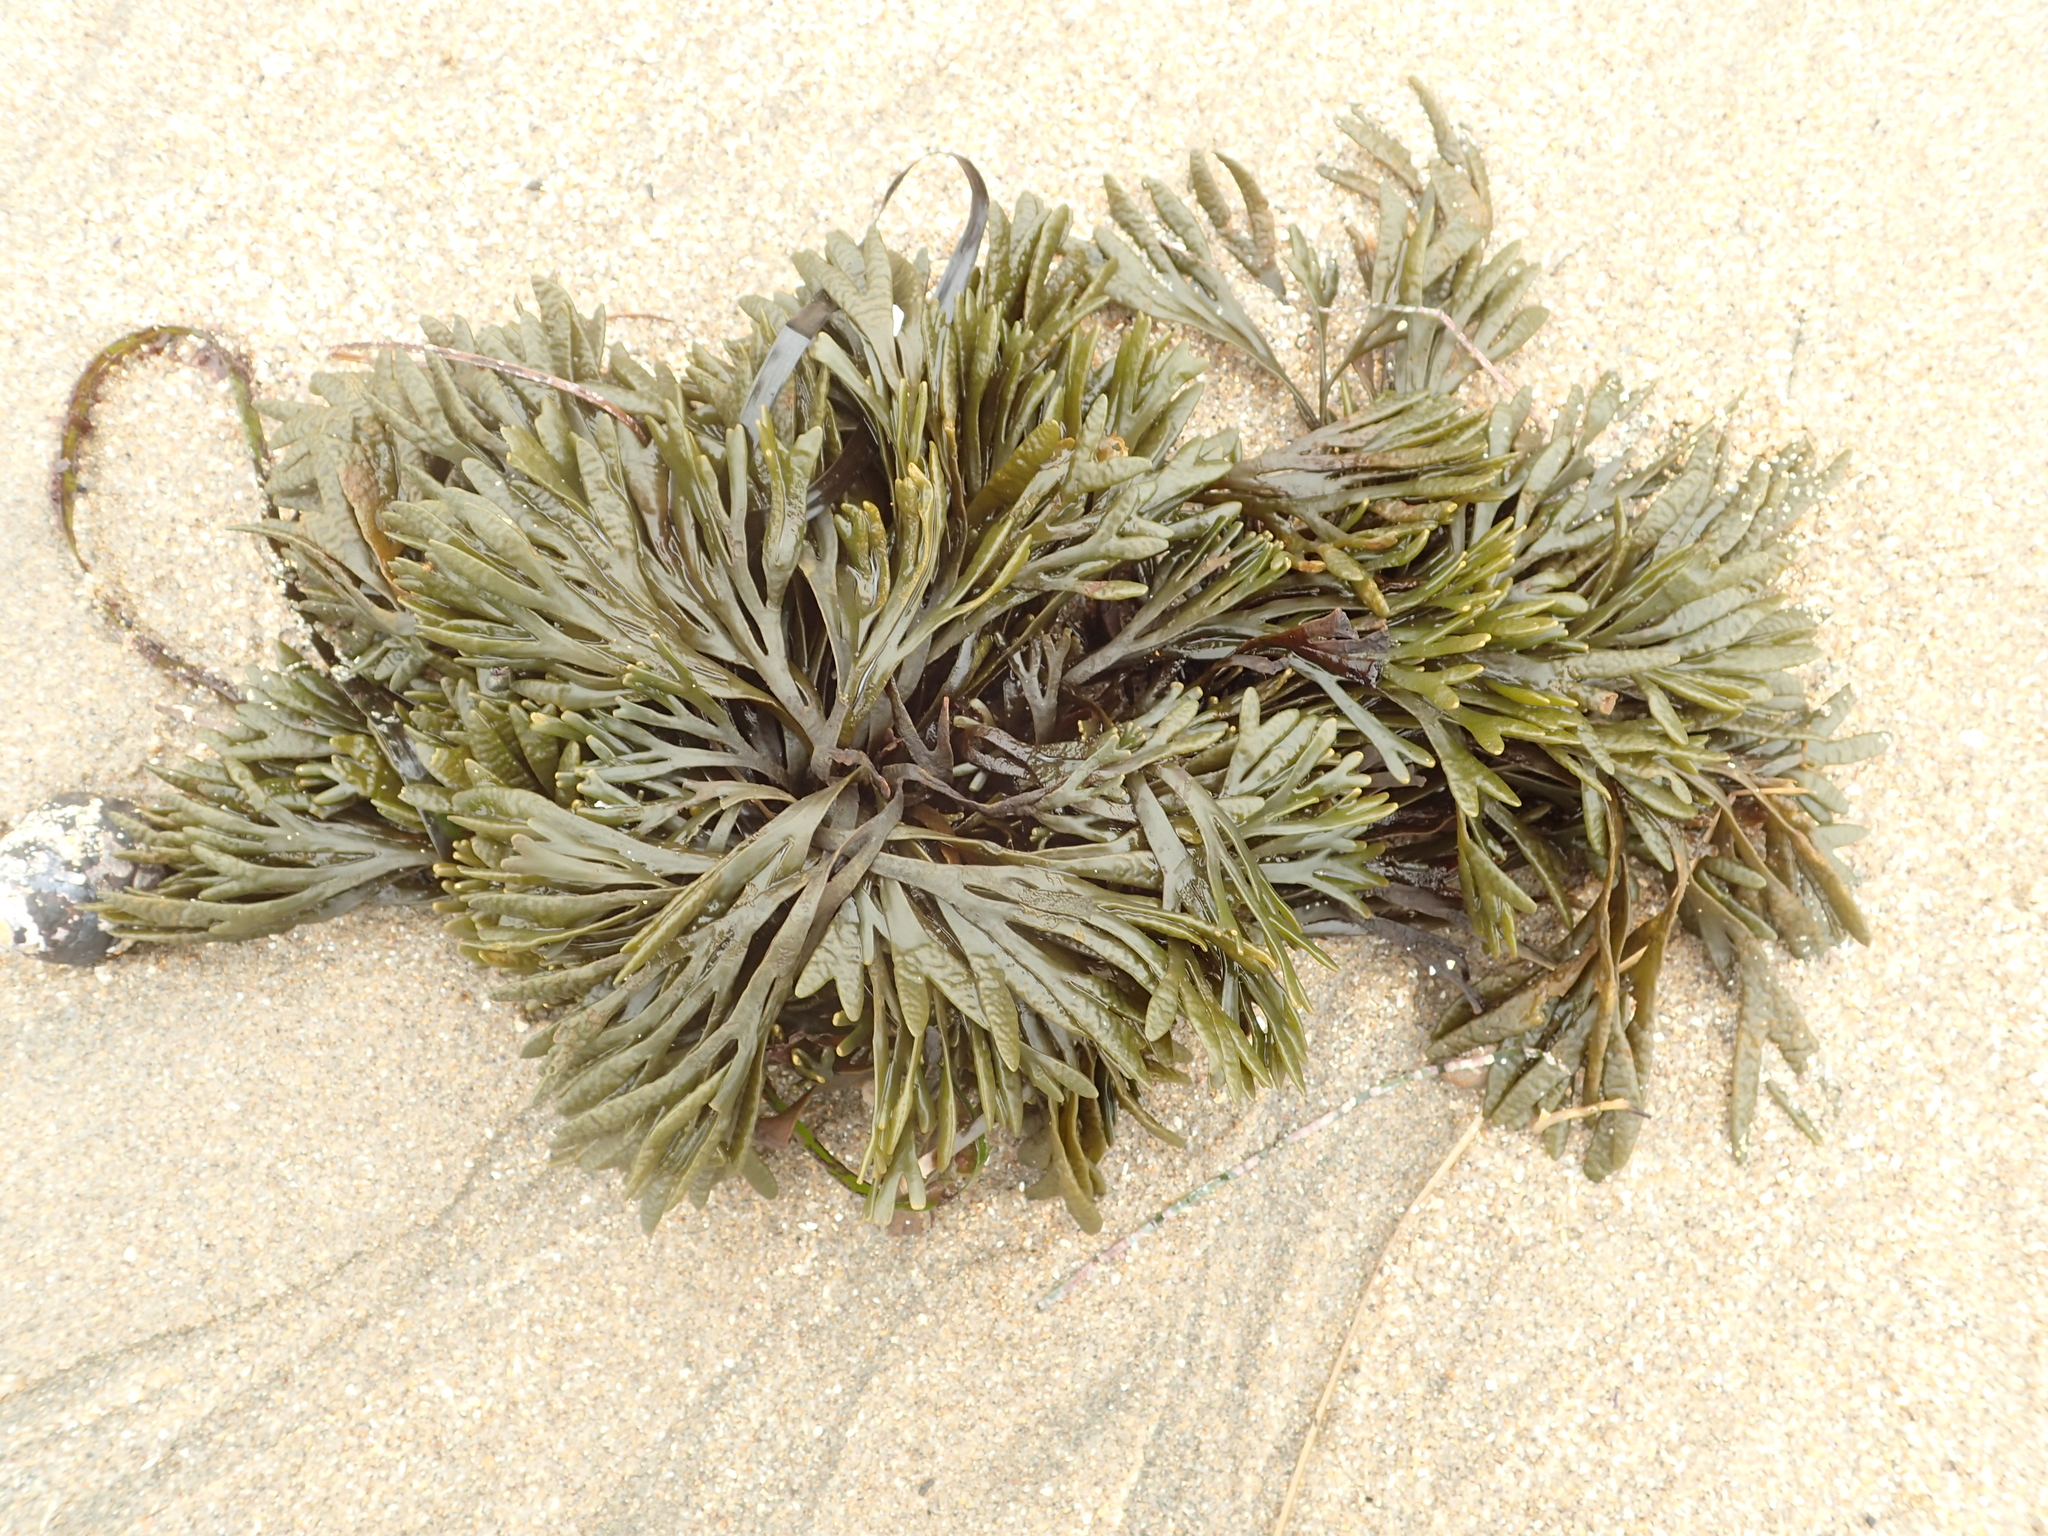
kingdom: Chromista
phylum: Ochrophyta
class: Phaeophyceae
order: Fucales
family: Fucaceae
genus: Pelvetiopsis
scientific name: Pelvetiopsis limitata
